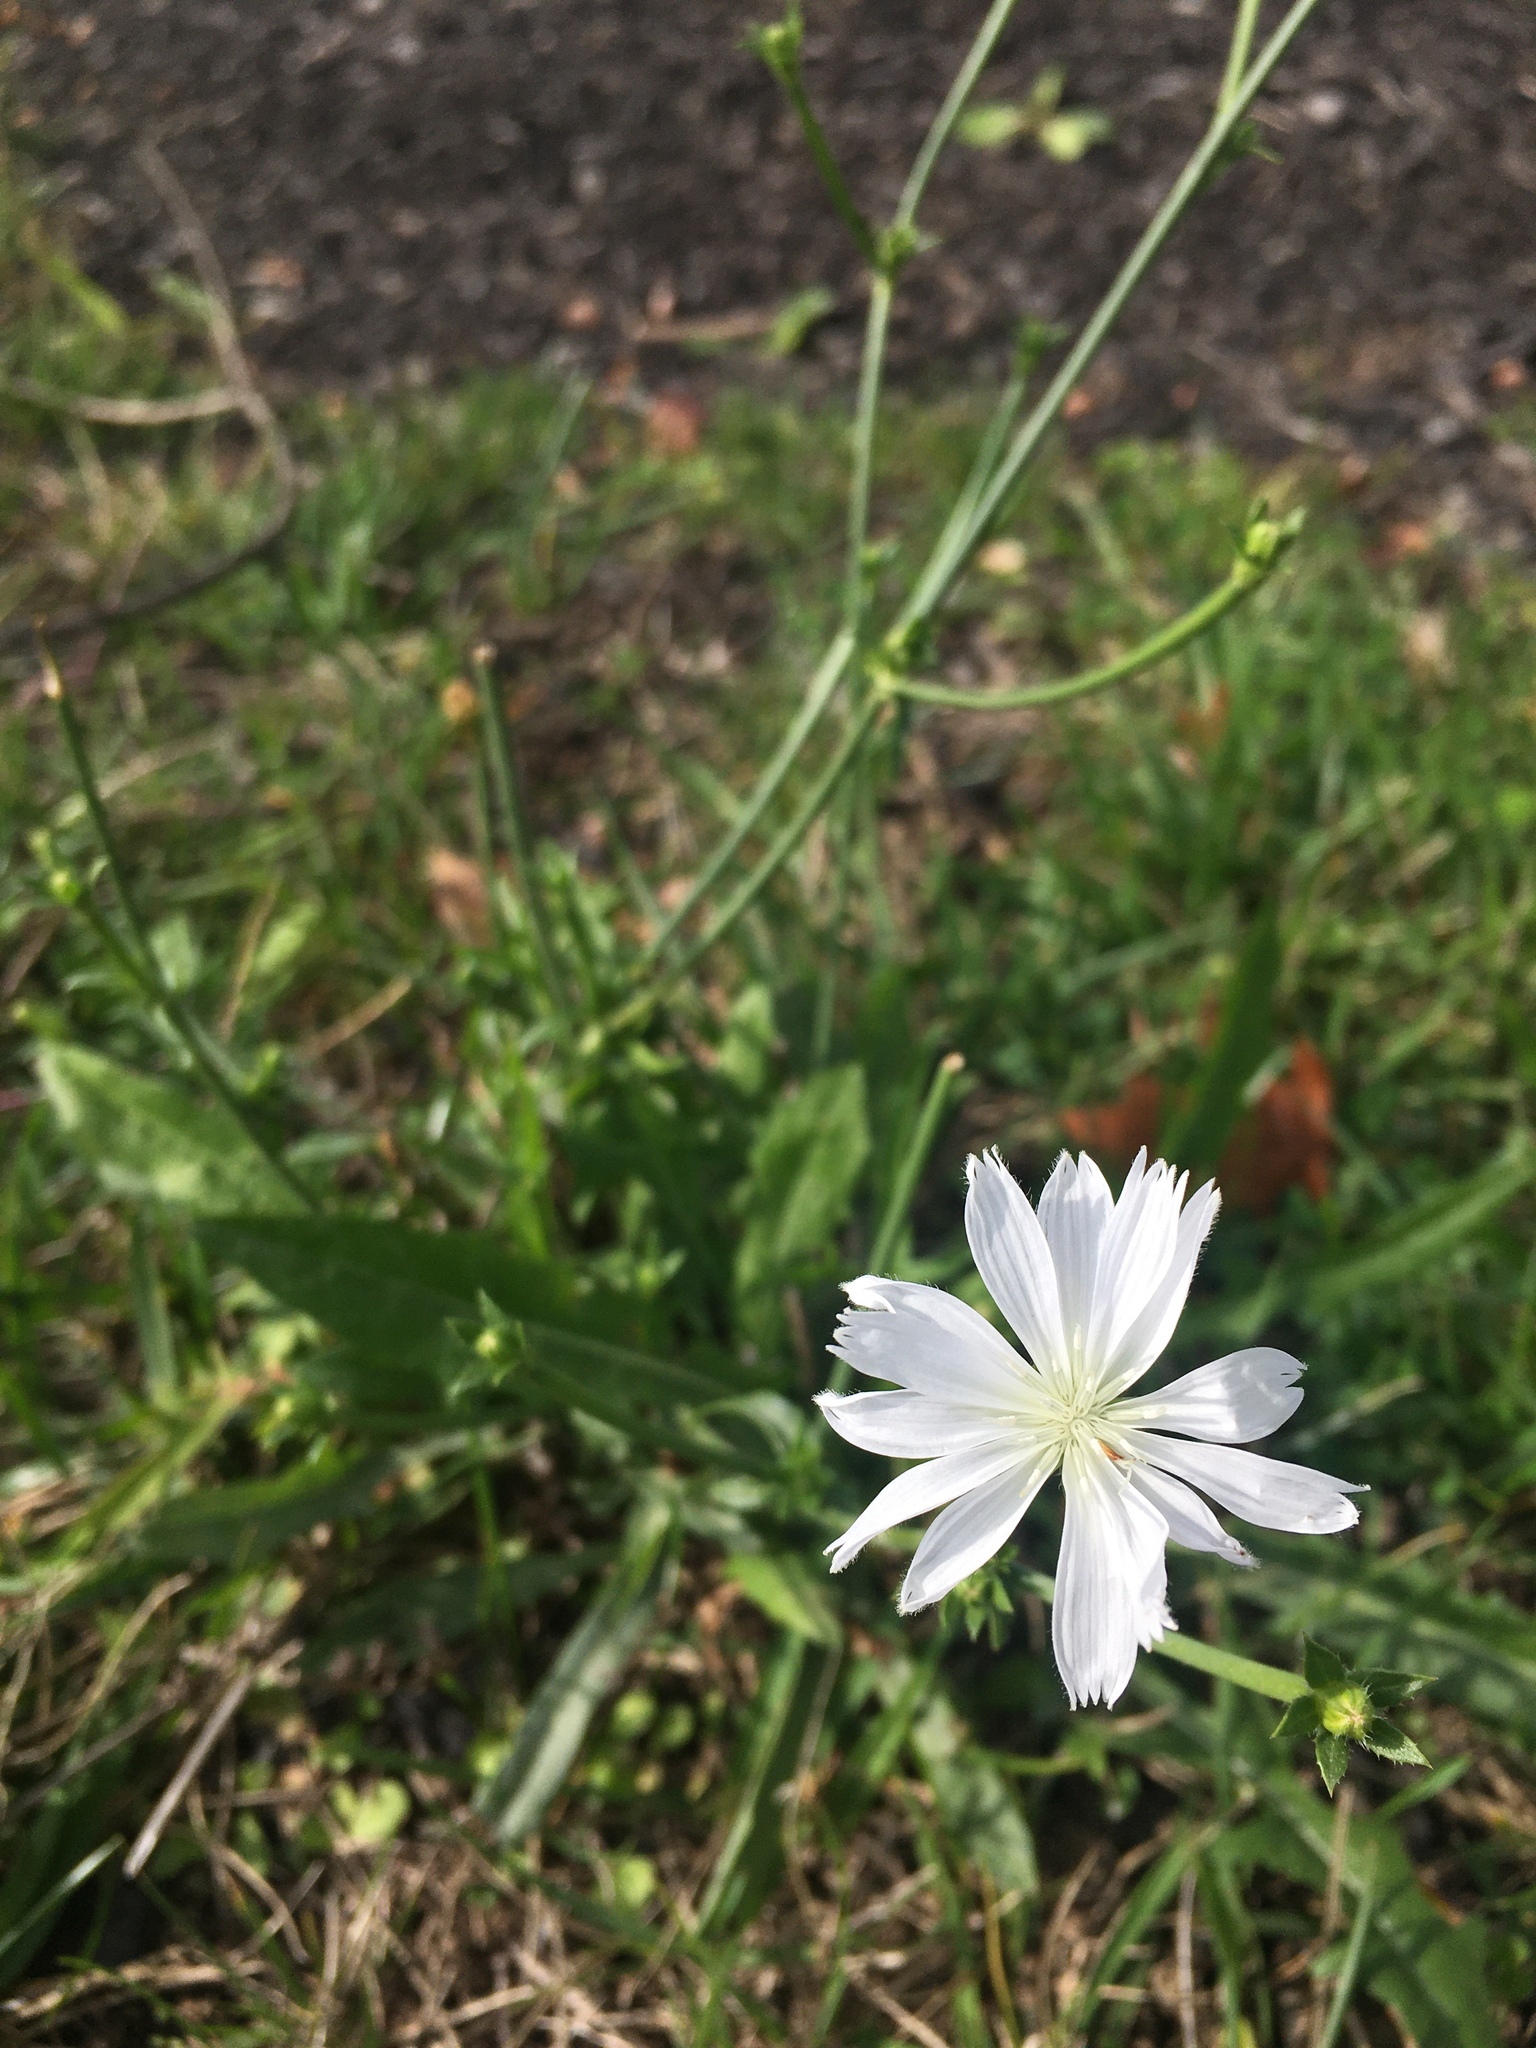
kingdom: Plantae
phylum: Tracheophyta
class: Magnoliopsida
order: Asterales
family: Asteraceae
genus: Cichorium
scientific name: Cichorium intybus
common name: Chicory
